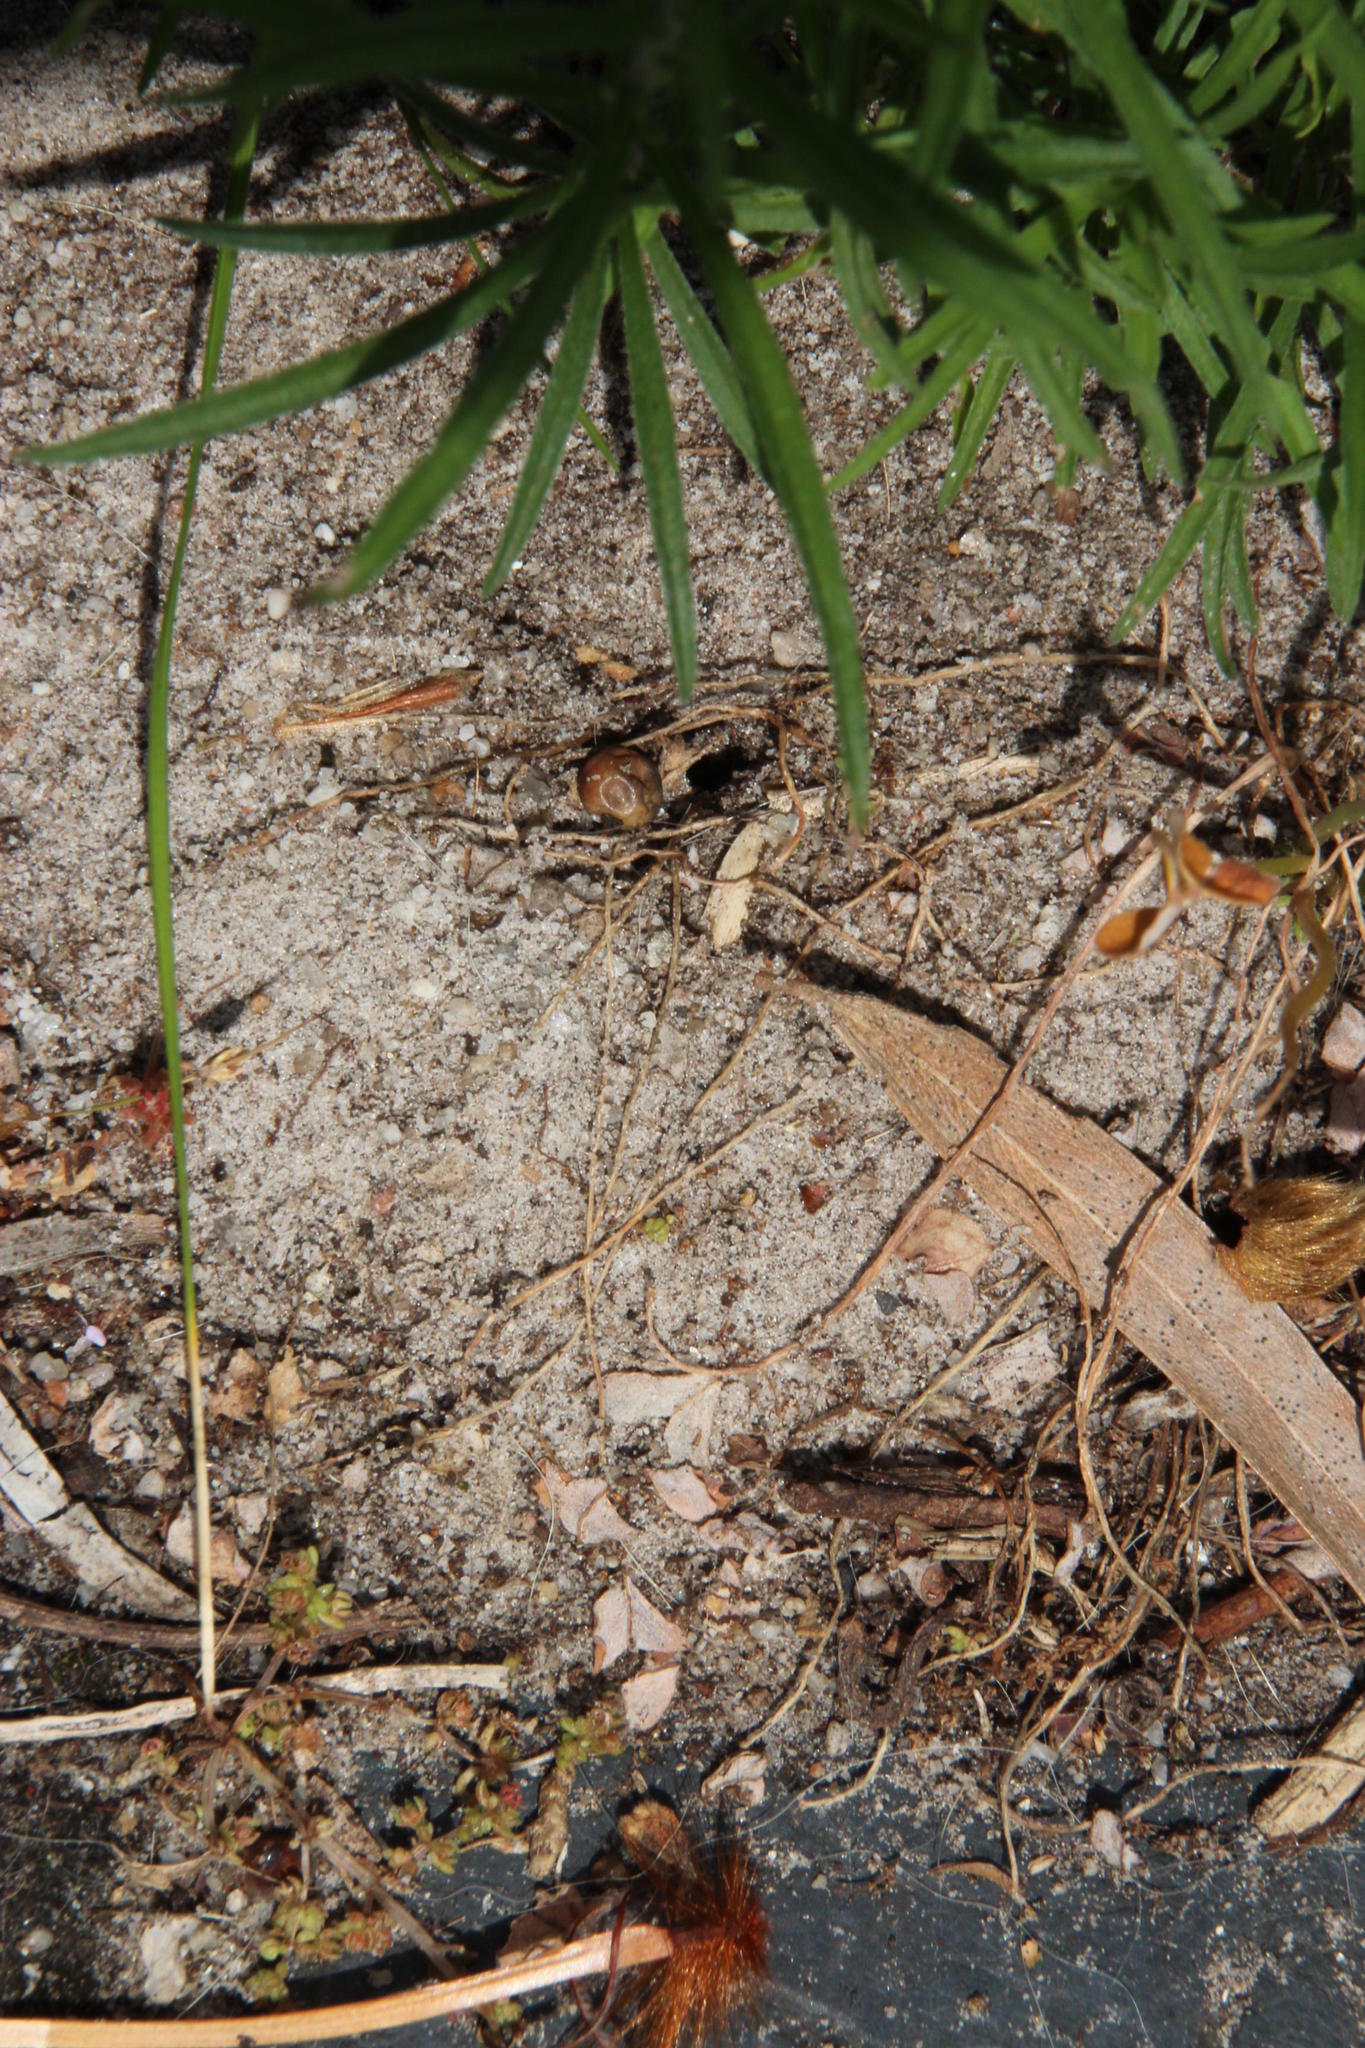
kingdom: Animalia
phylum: Arthropoda
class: Insecta
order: Hymenoptera
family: Formicidae
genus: Pheidole
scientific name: Pheidole megacephala
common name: Bigheaded ant
